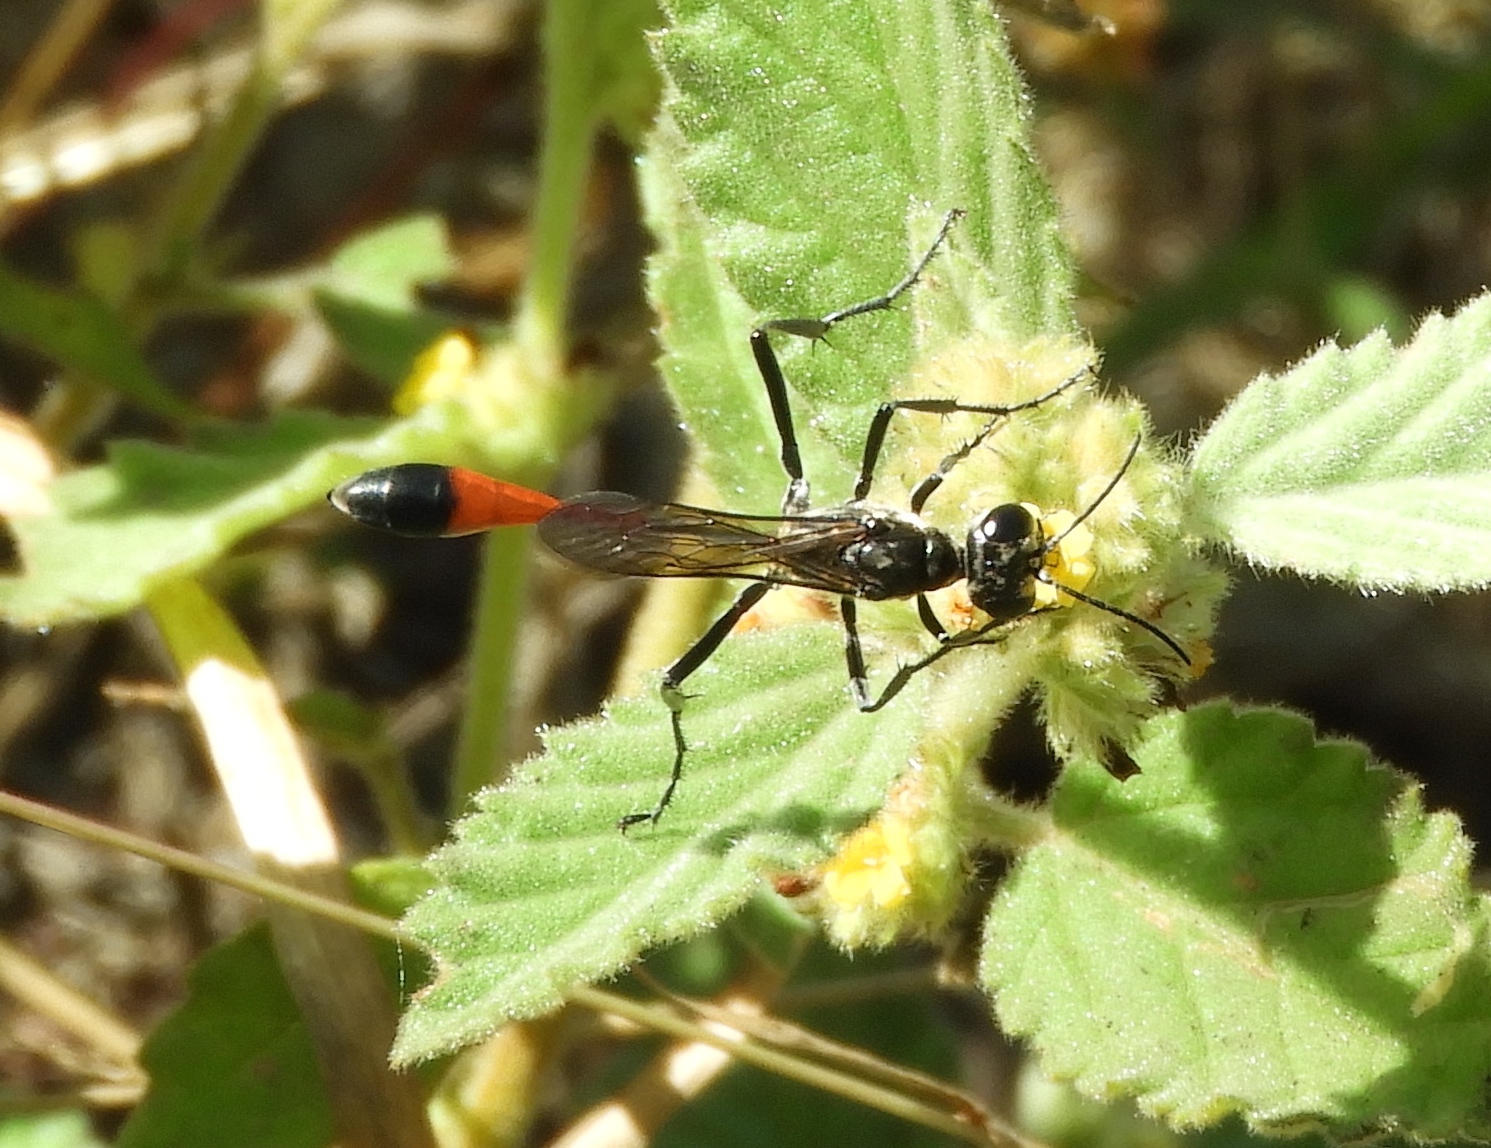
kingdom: Animalia
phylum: Arthropoda
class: Insecta
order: Hymenoptera
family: Sphecidae
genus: Ammophila
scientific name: Ammophila
